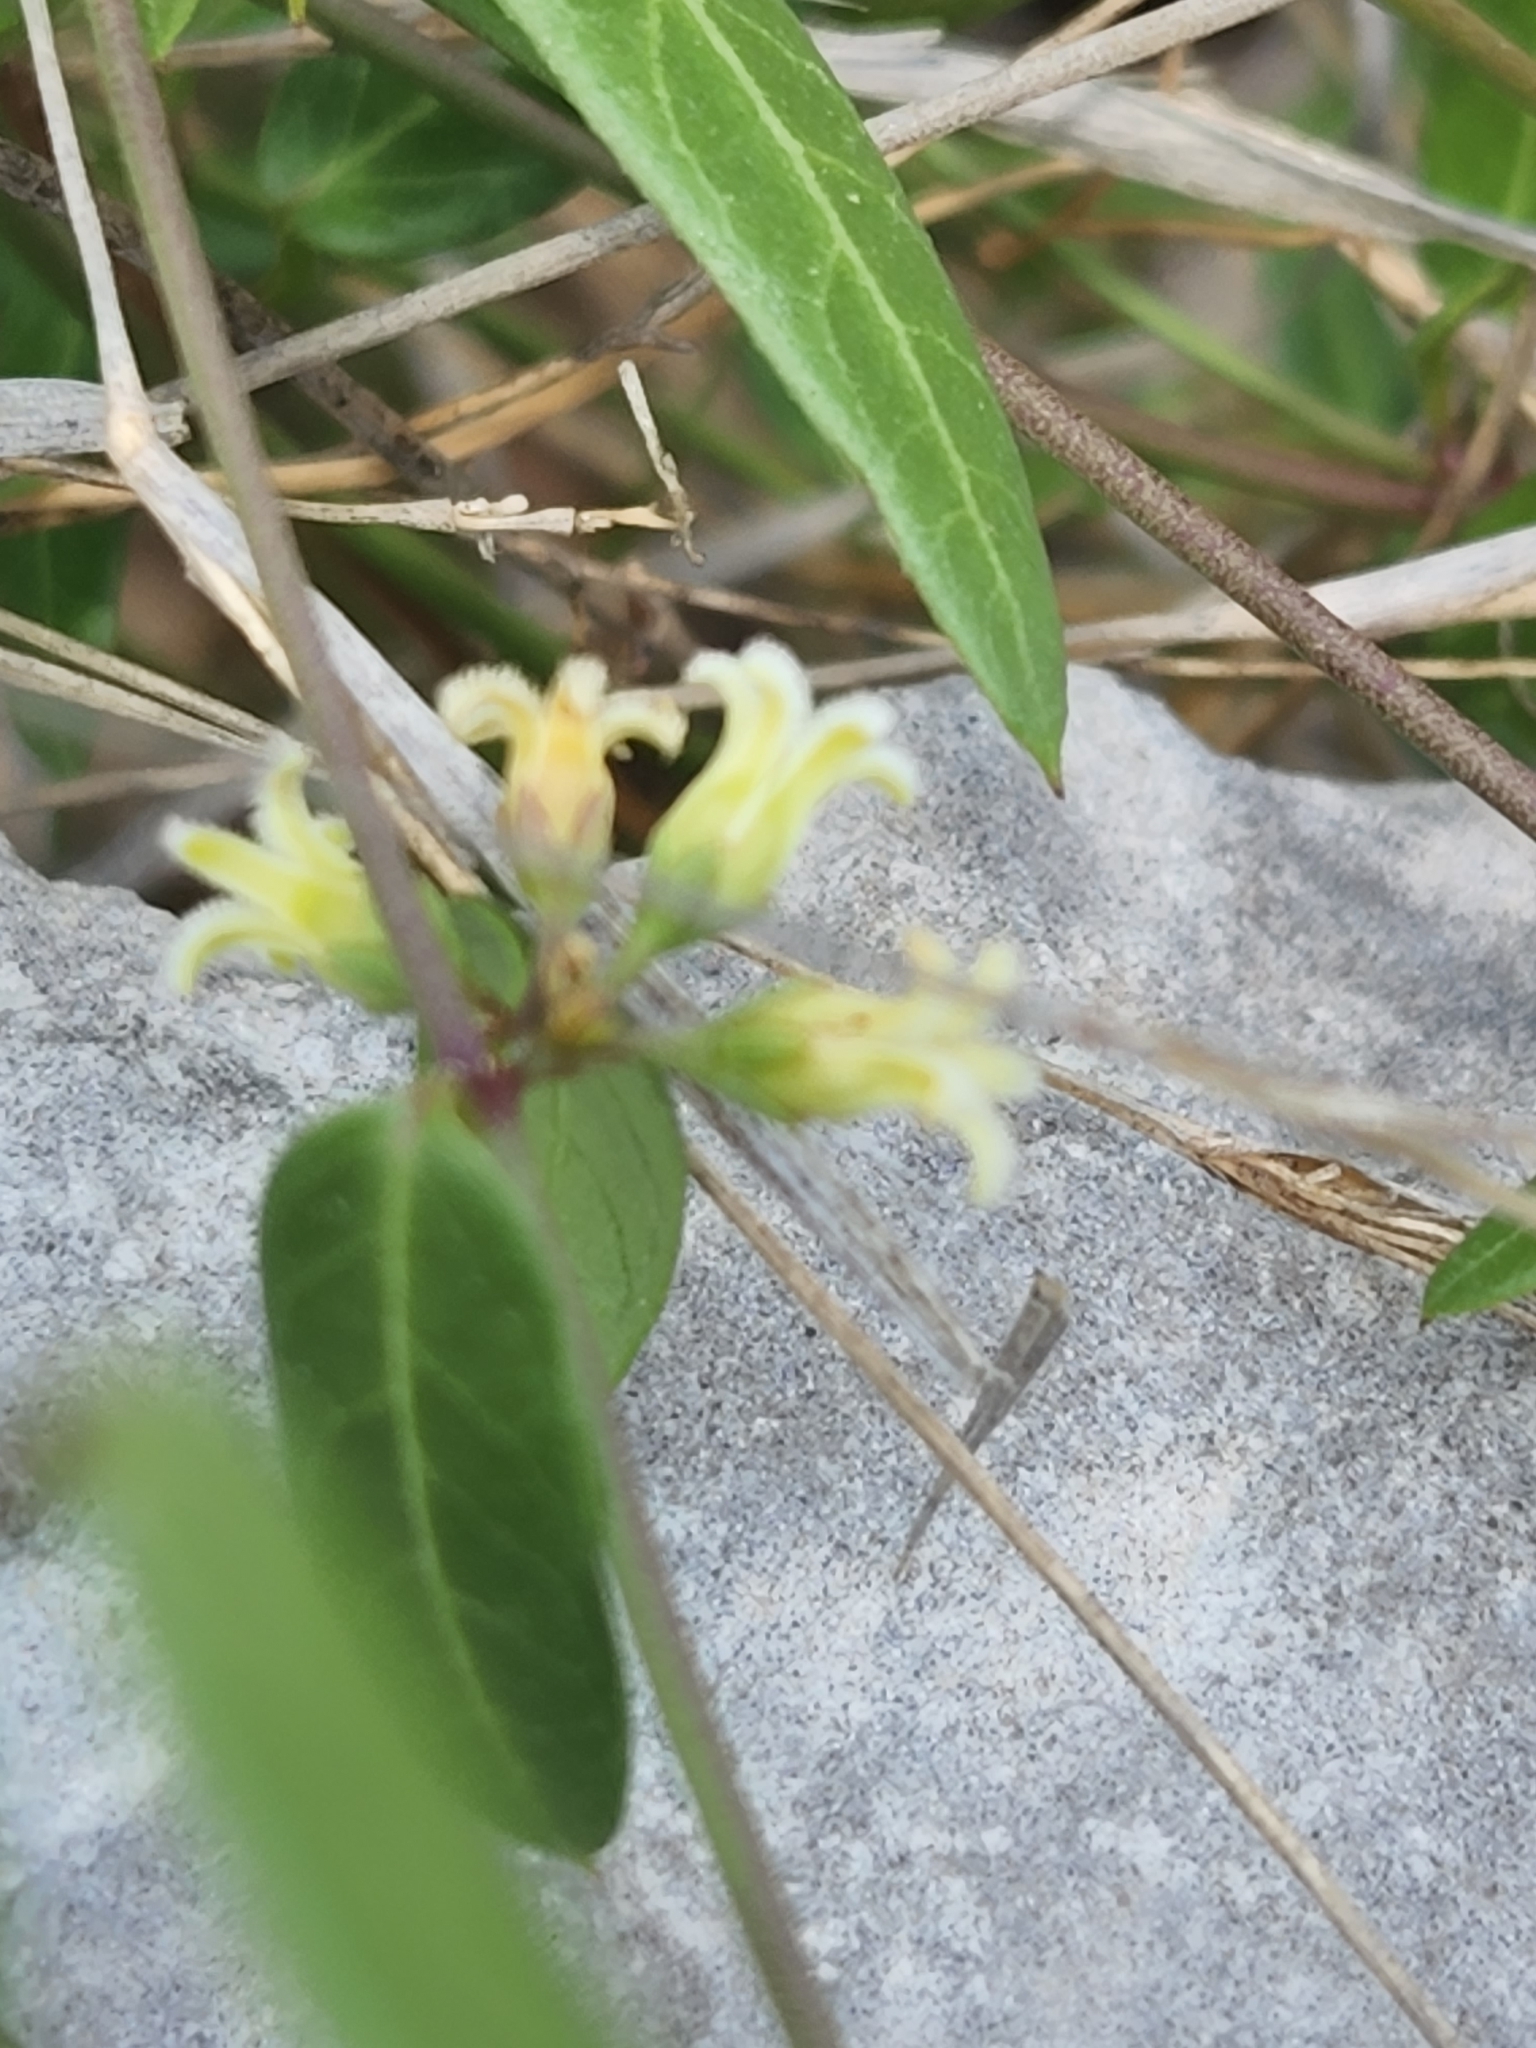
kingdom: Plantae
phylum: Tracheophyta
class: Magnoliopsida
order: Gentianales
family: Apocynaceae
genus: Metastelma
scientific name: Metastelma barbigerum
